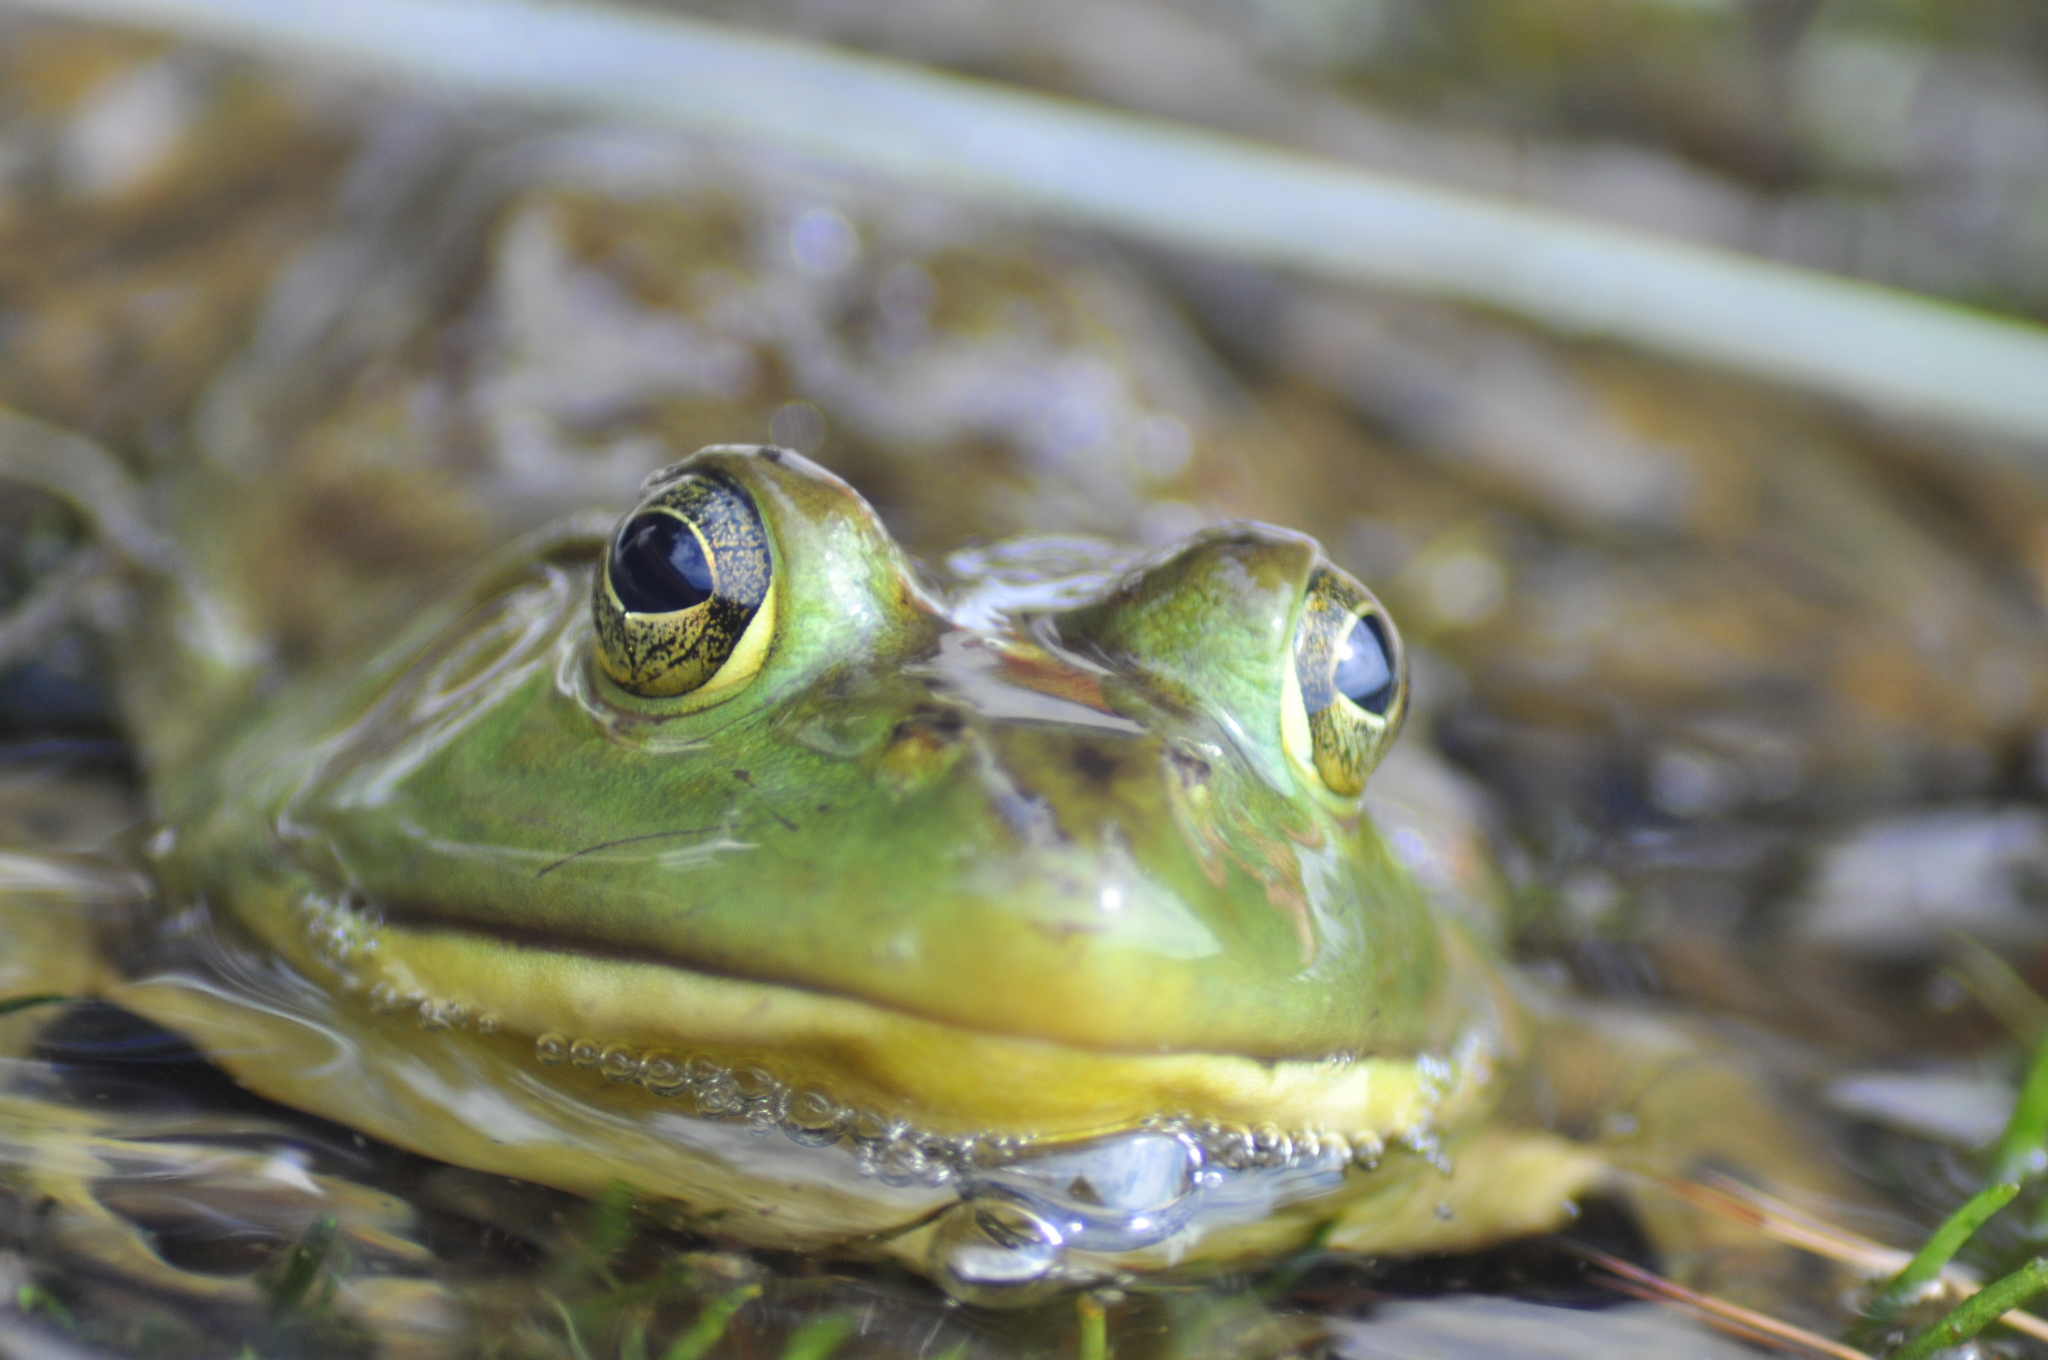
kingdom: Animalia
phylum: Chordata
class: Amphibia
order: Anura
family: Ranidae
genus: Lithobates
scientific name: Lithobates catesbeianus
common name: American bullfrog
